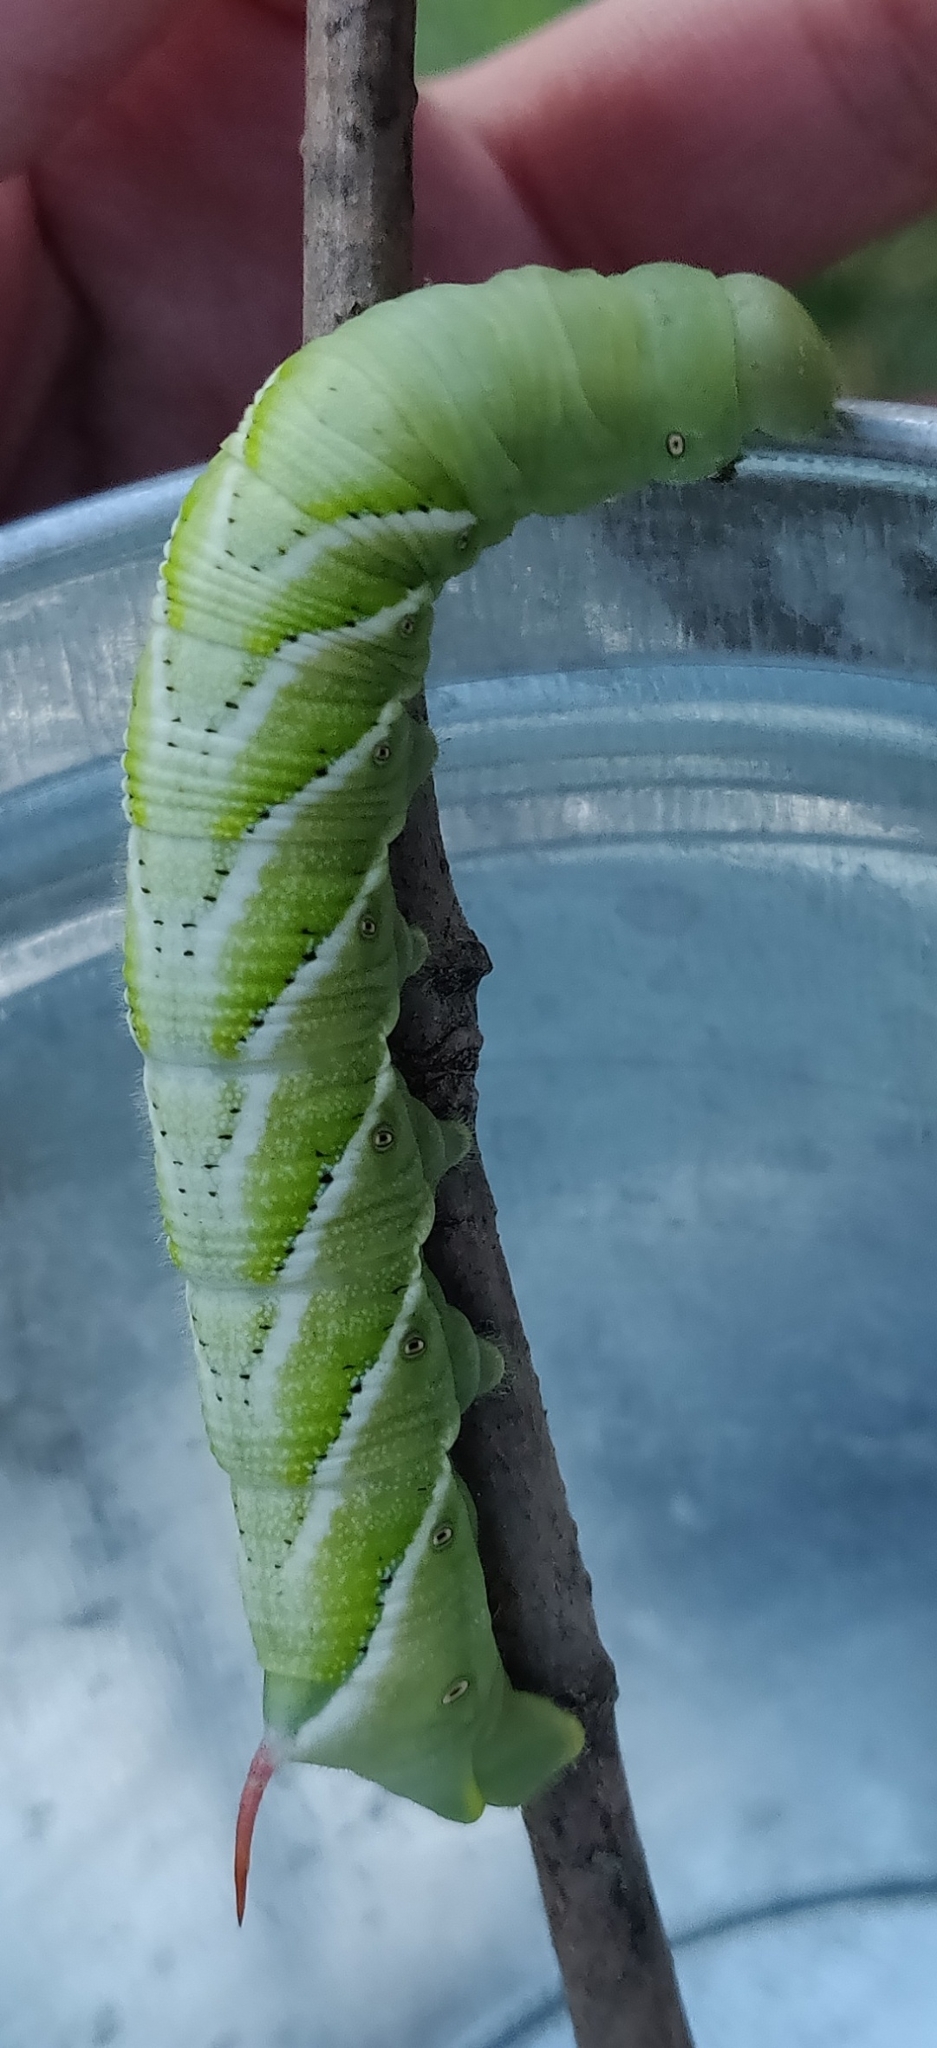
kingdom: Animalia
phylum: Arthropoda
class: Insecta
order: Lepidoptera
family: Sphingidae
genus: Manduca
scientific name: Manduca sexta
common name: Carolina sphinx
